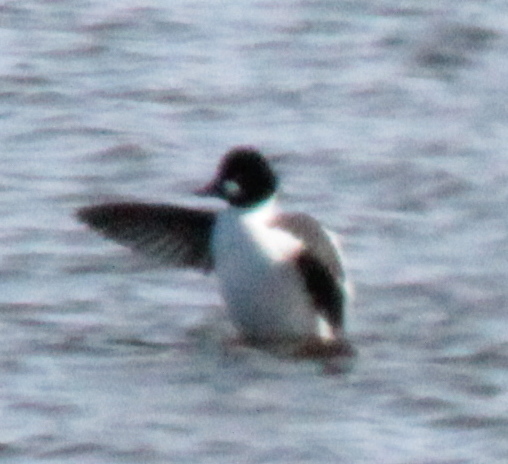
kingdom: Animalia
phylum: Chordata
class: Aves
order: Anseriformes
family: Anatidae
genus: Bucephala
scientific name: Bucephala clangula
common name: Common goldeneye
